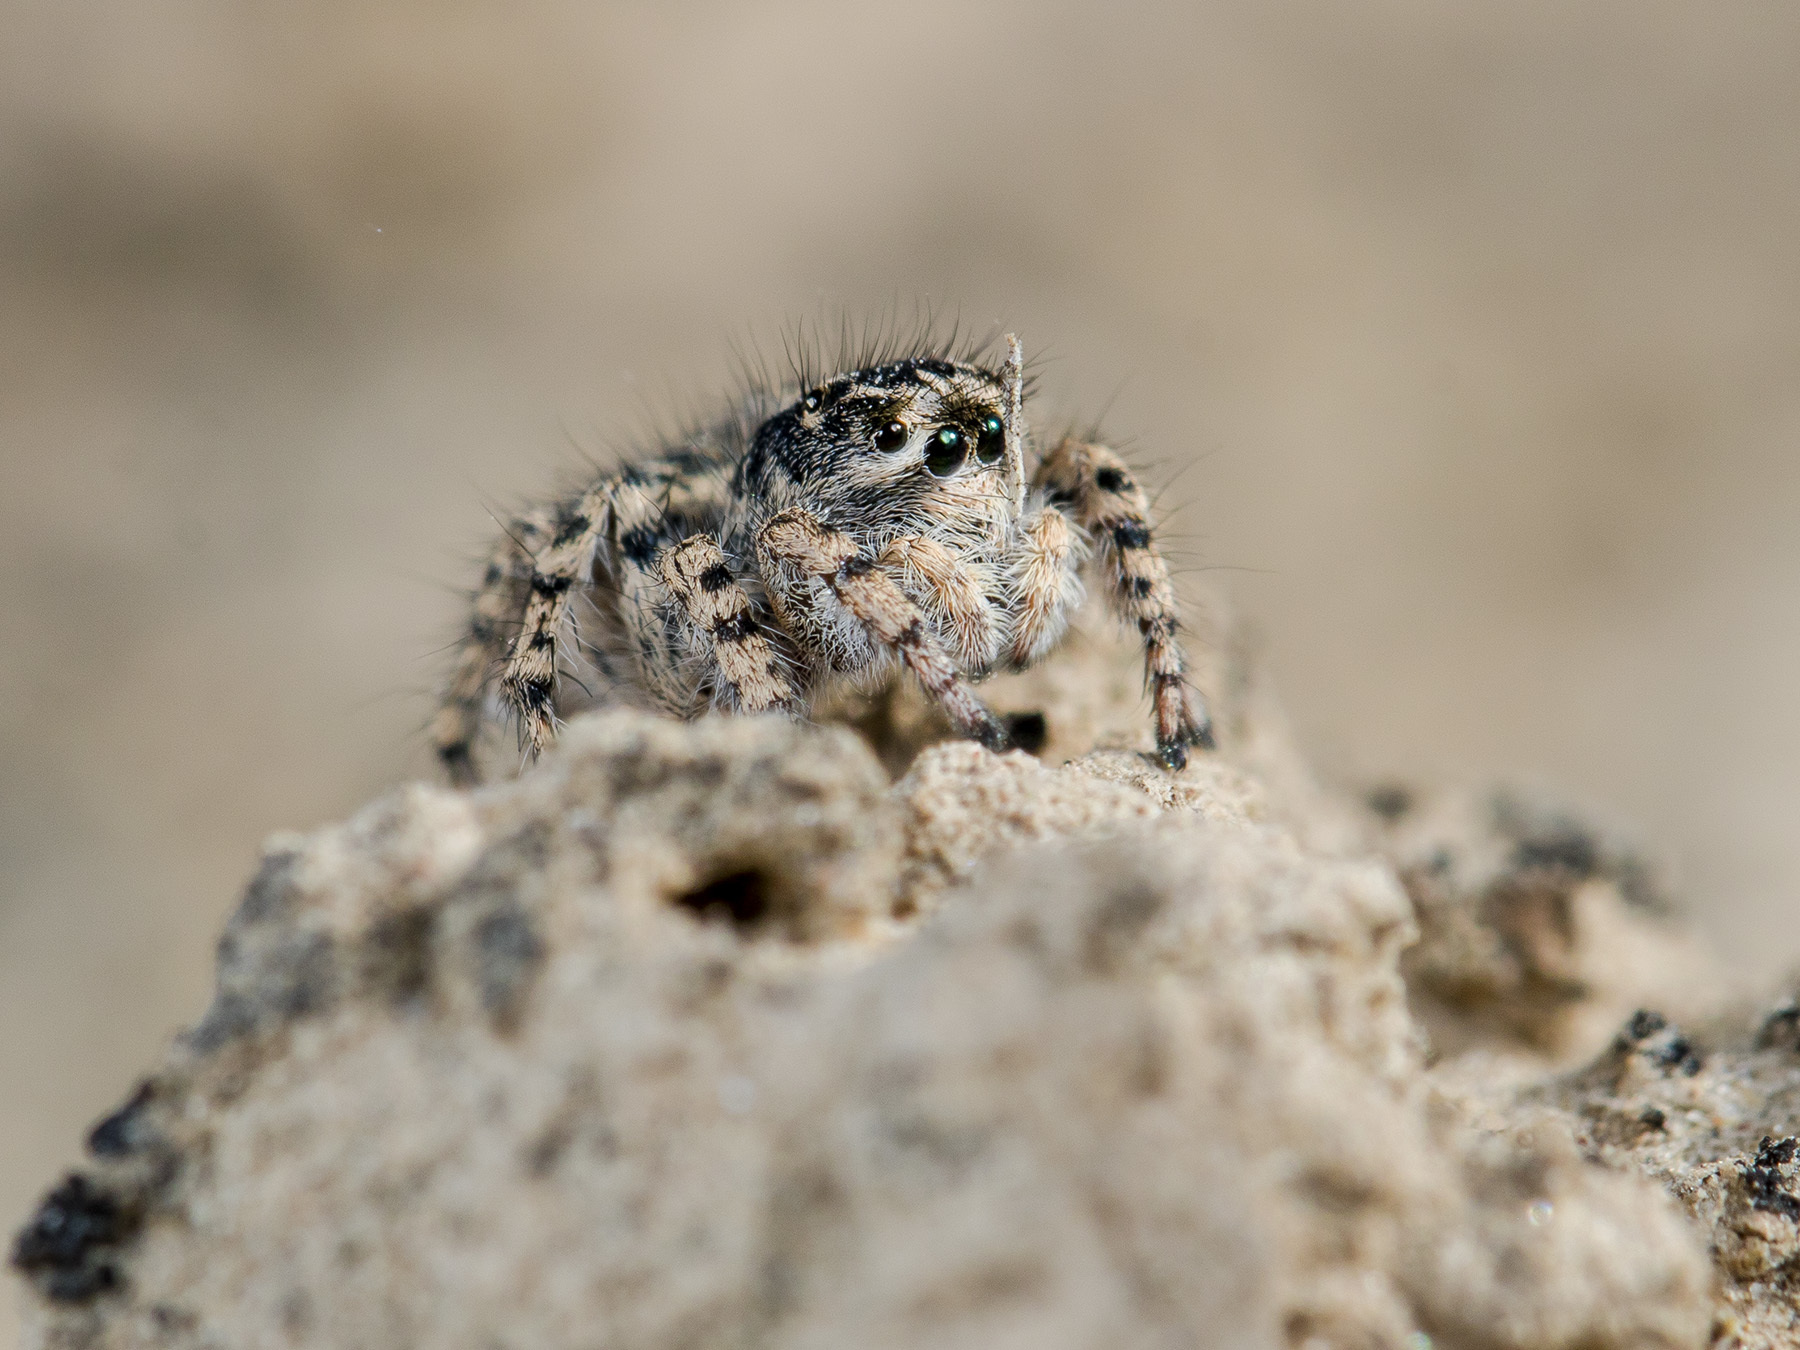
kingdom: Animalia
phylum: Arthropoda
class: Arachnida
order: Araneae
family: Salticidae
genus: Aelurillus
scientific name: Aelurillus dubatolovi
